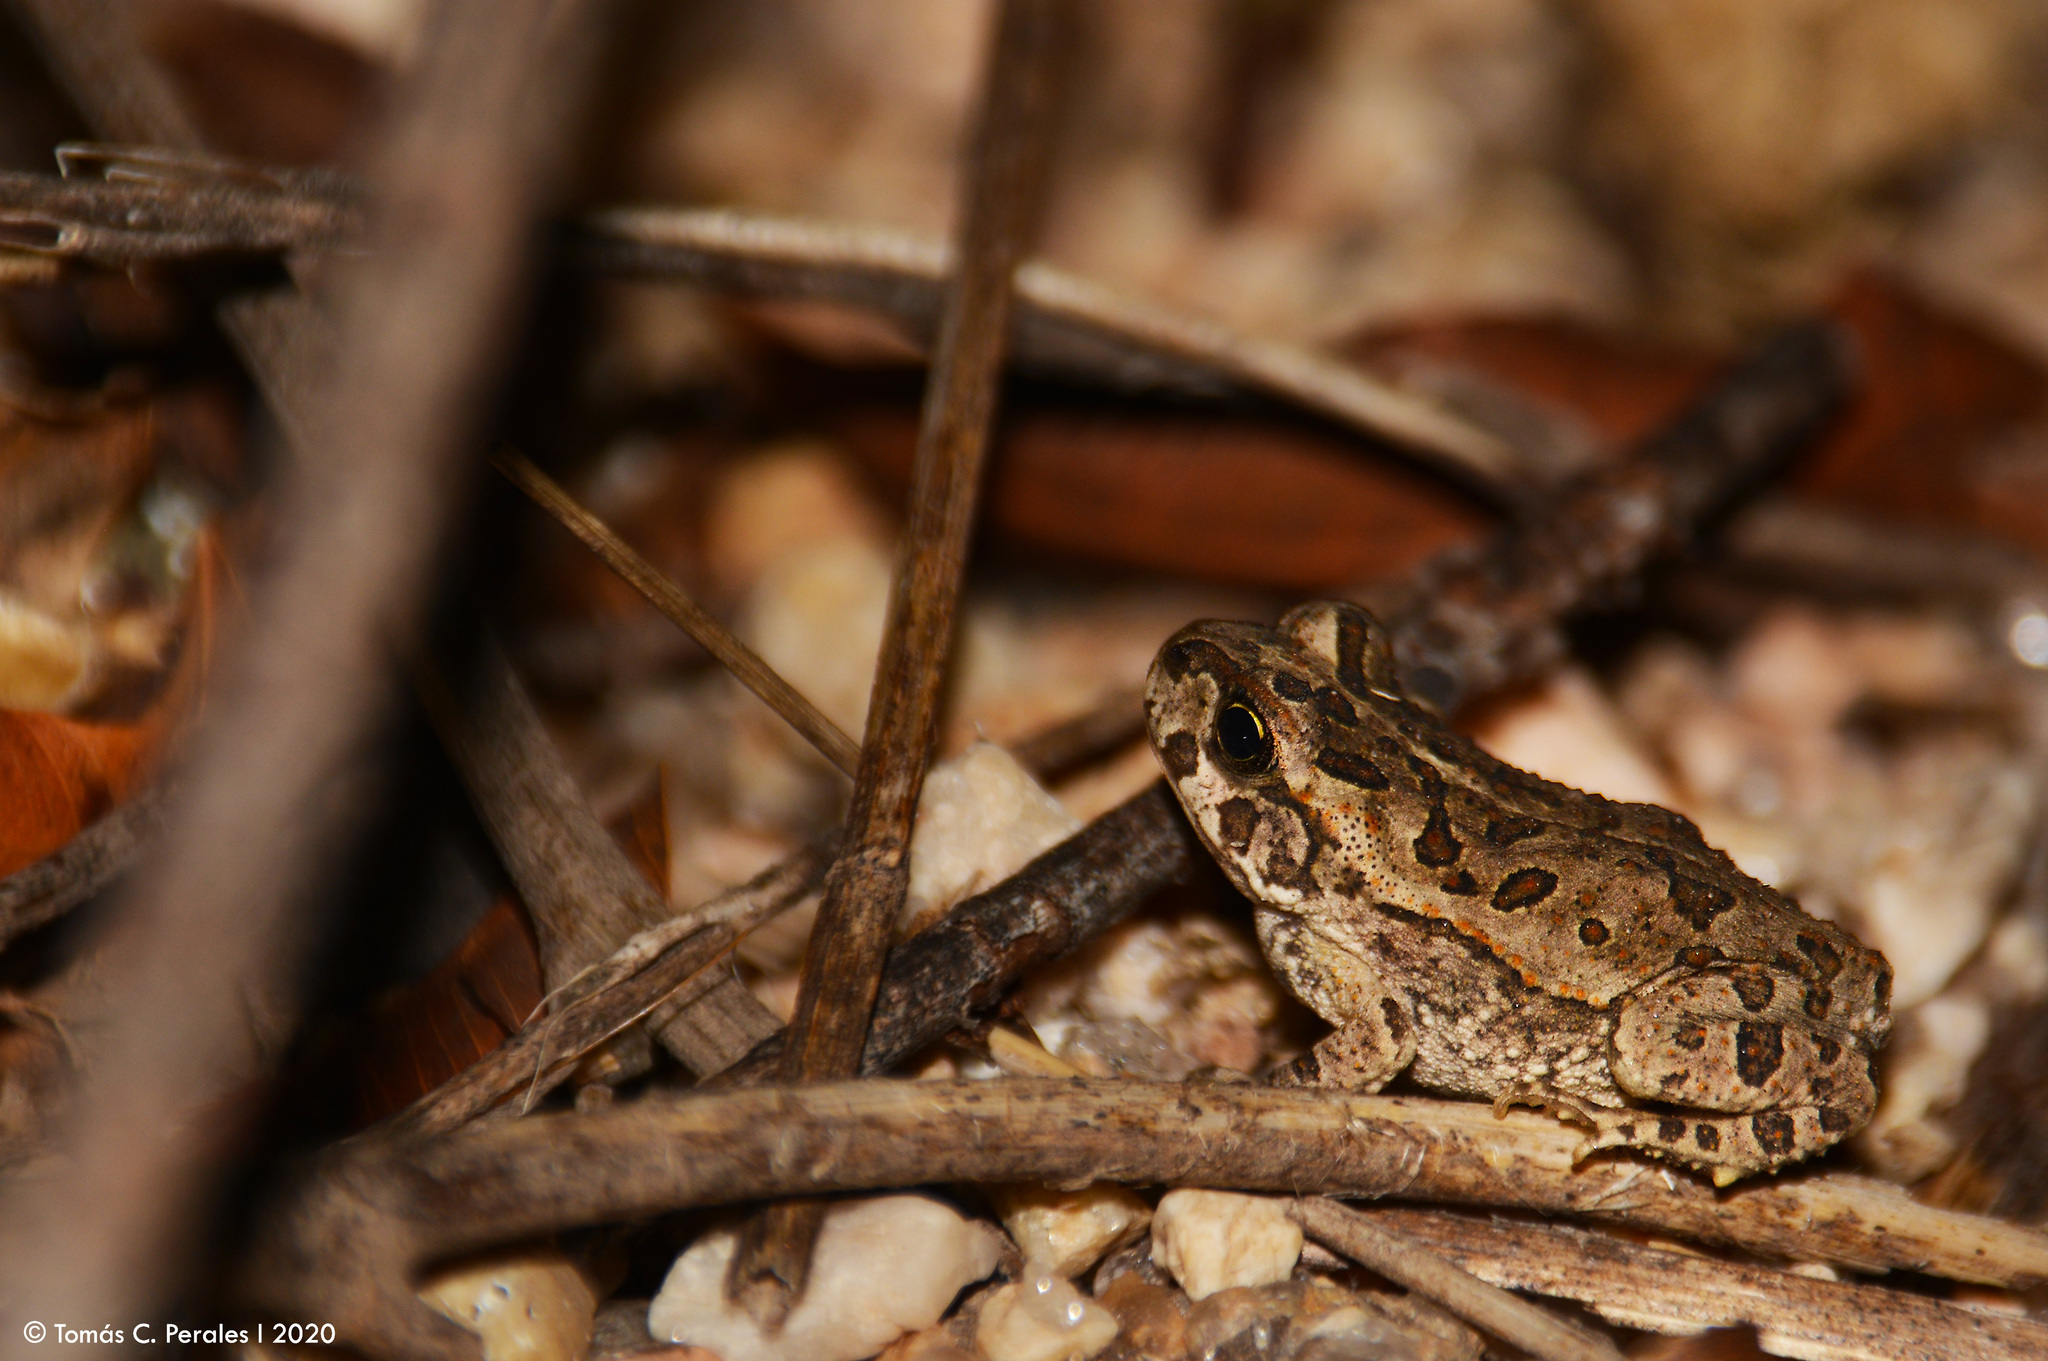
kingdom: Animalia
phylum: Chordata
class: Amphibia
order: Anura
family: Bufonidae
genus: Rhinella
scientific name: Rhinella arenarum
